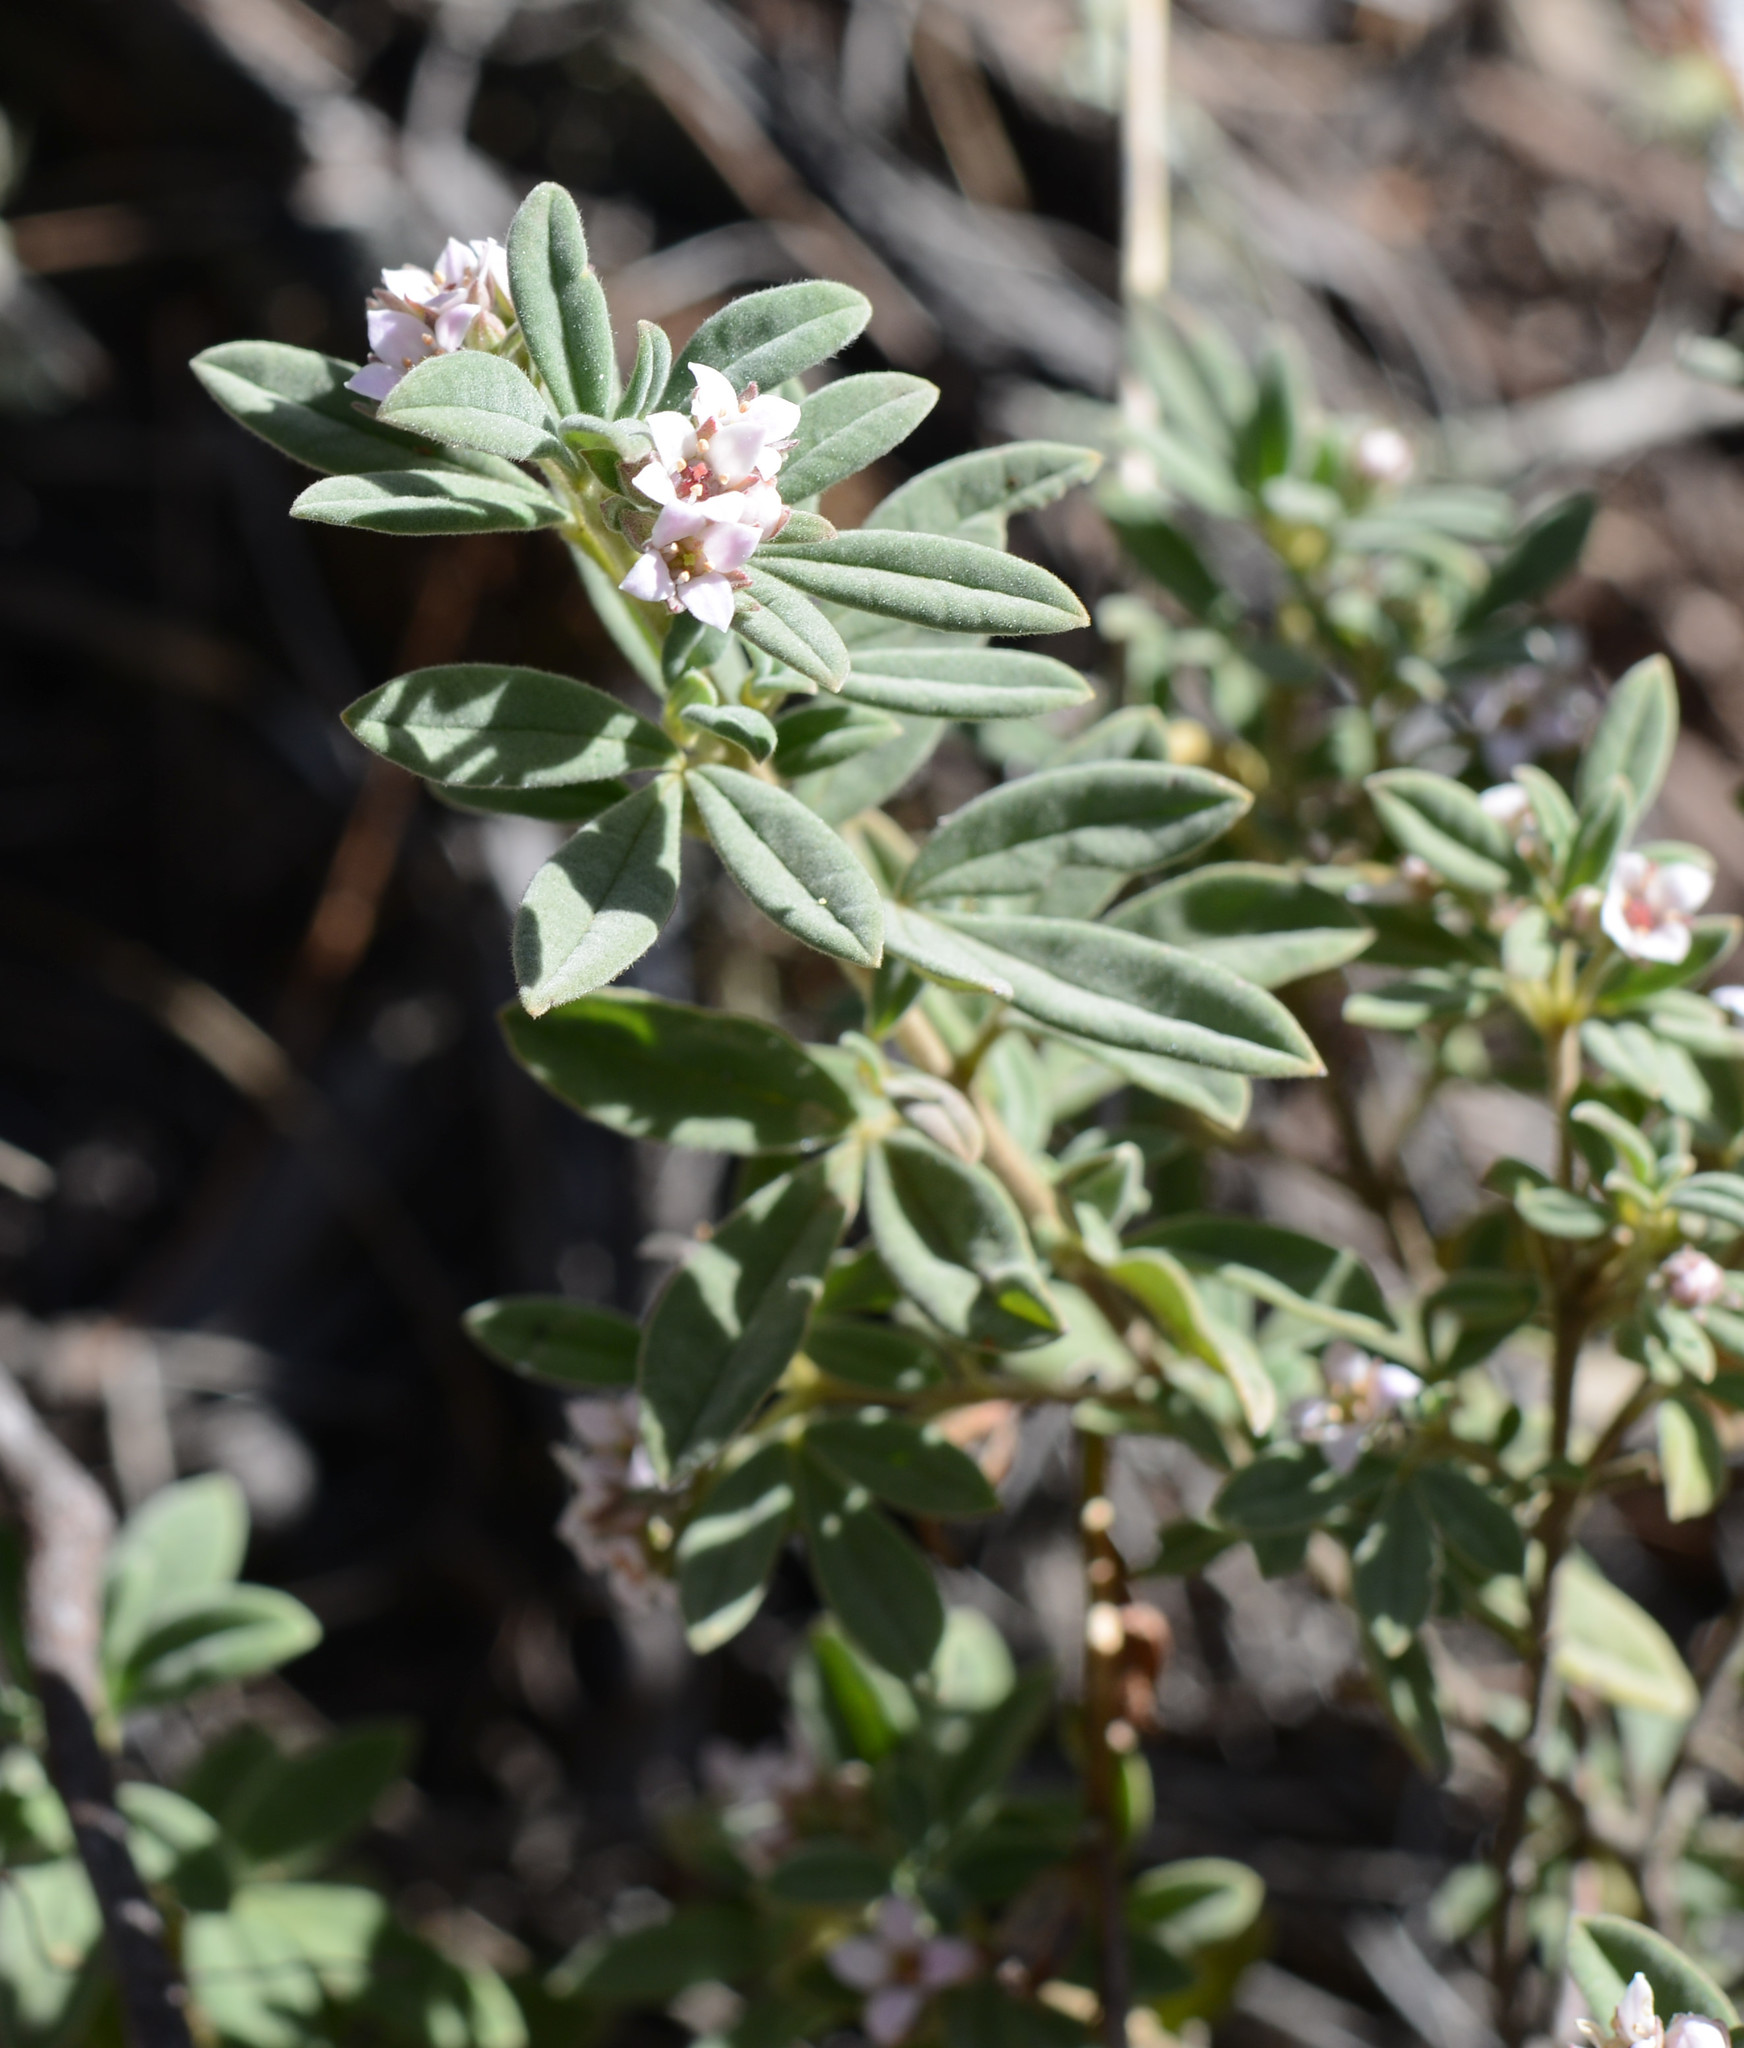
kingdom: Plantae
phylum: Tracheophyta
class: Magnoliopsida
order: Sapindales
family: Rutaceae
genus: Zieria
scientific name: Zieria cytisoides
